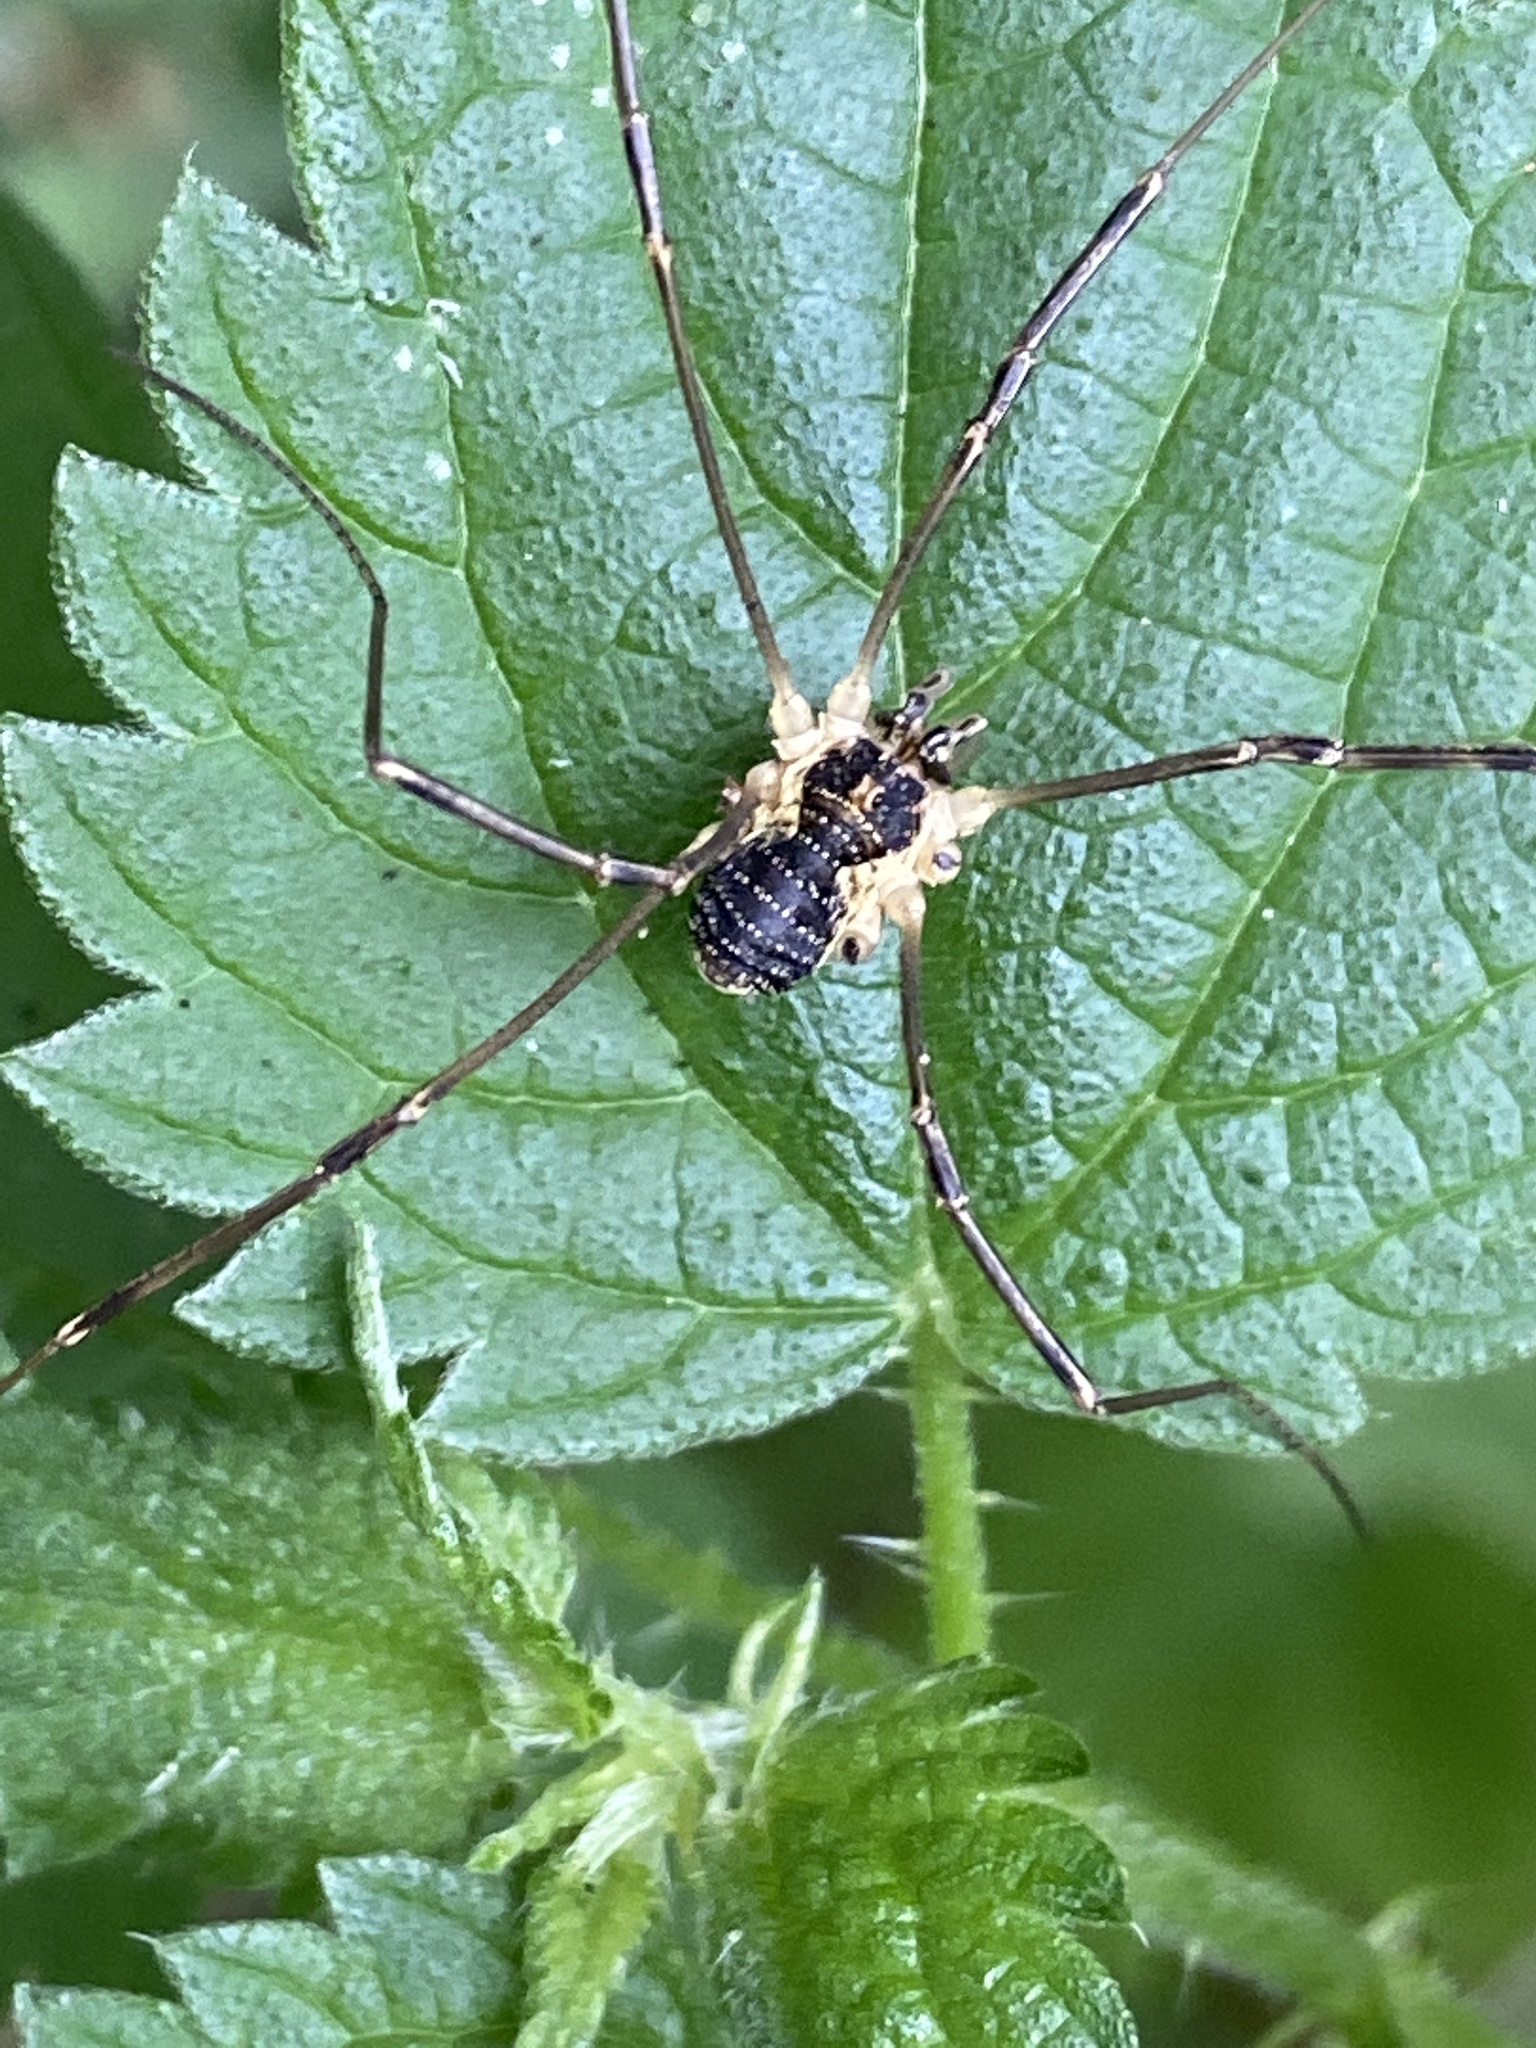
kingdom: Animalia
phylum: Arthropoda
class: Arachnida
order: Opiliones
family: Phalangiidae
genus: Mitopus
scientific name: Mitopus morio
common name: Saddleback harvestman
